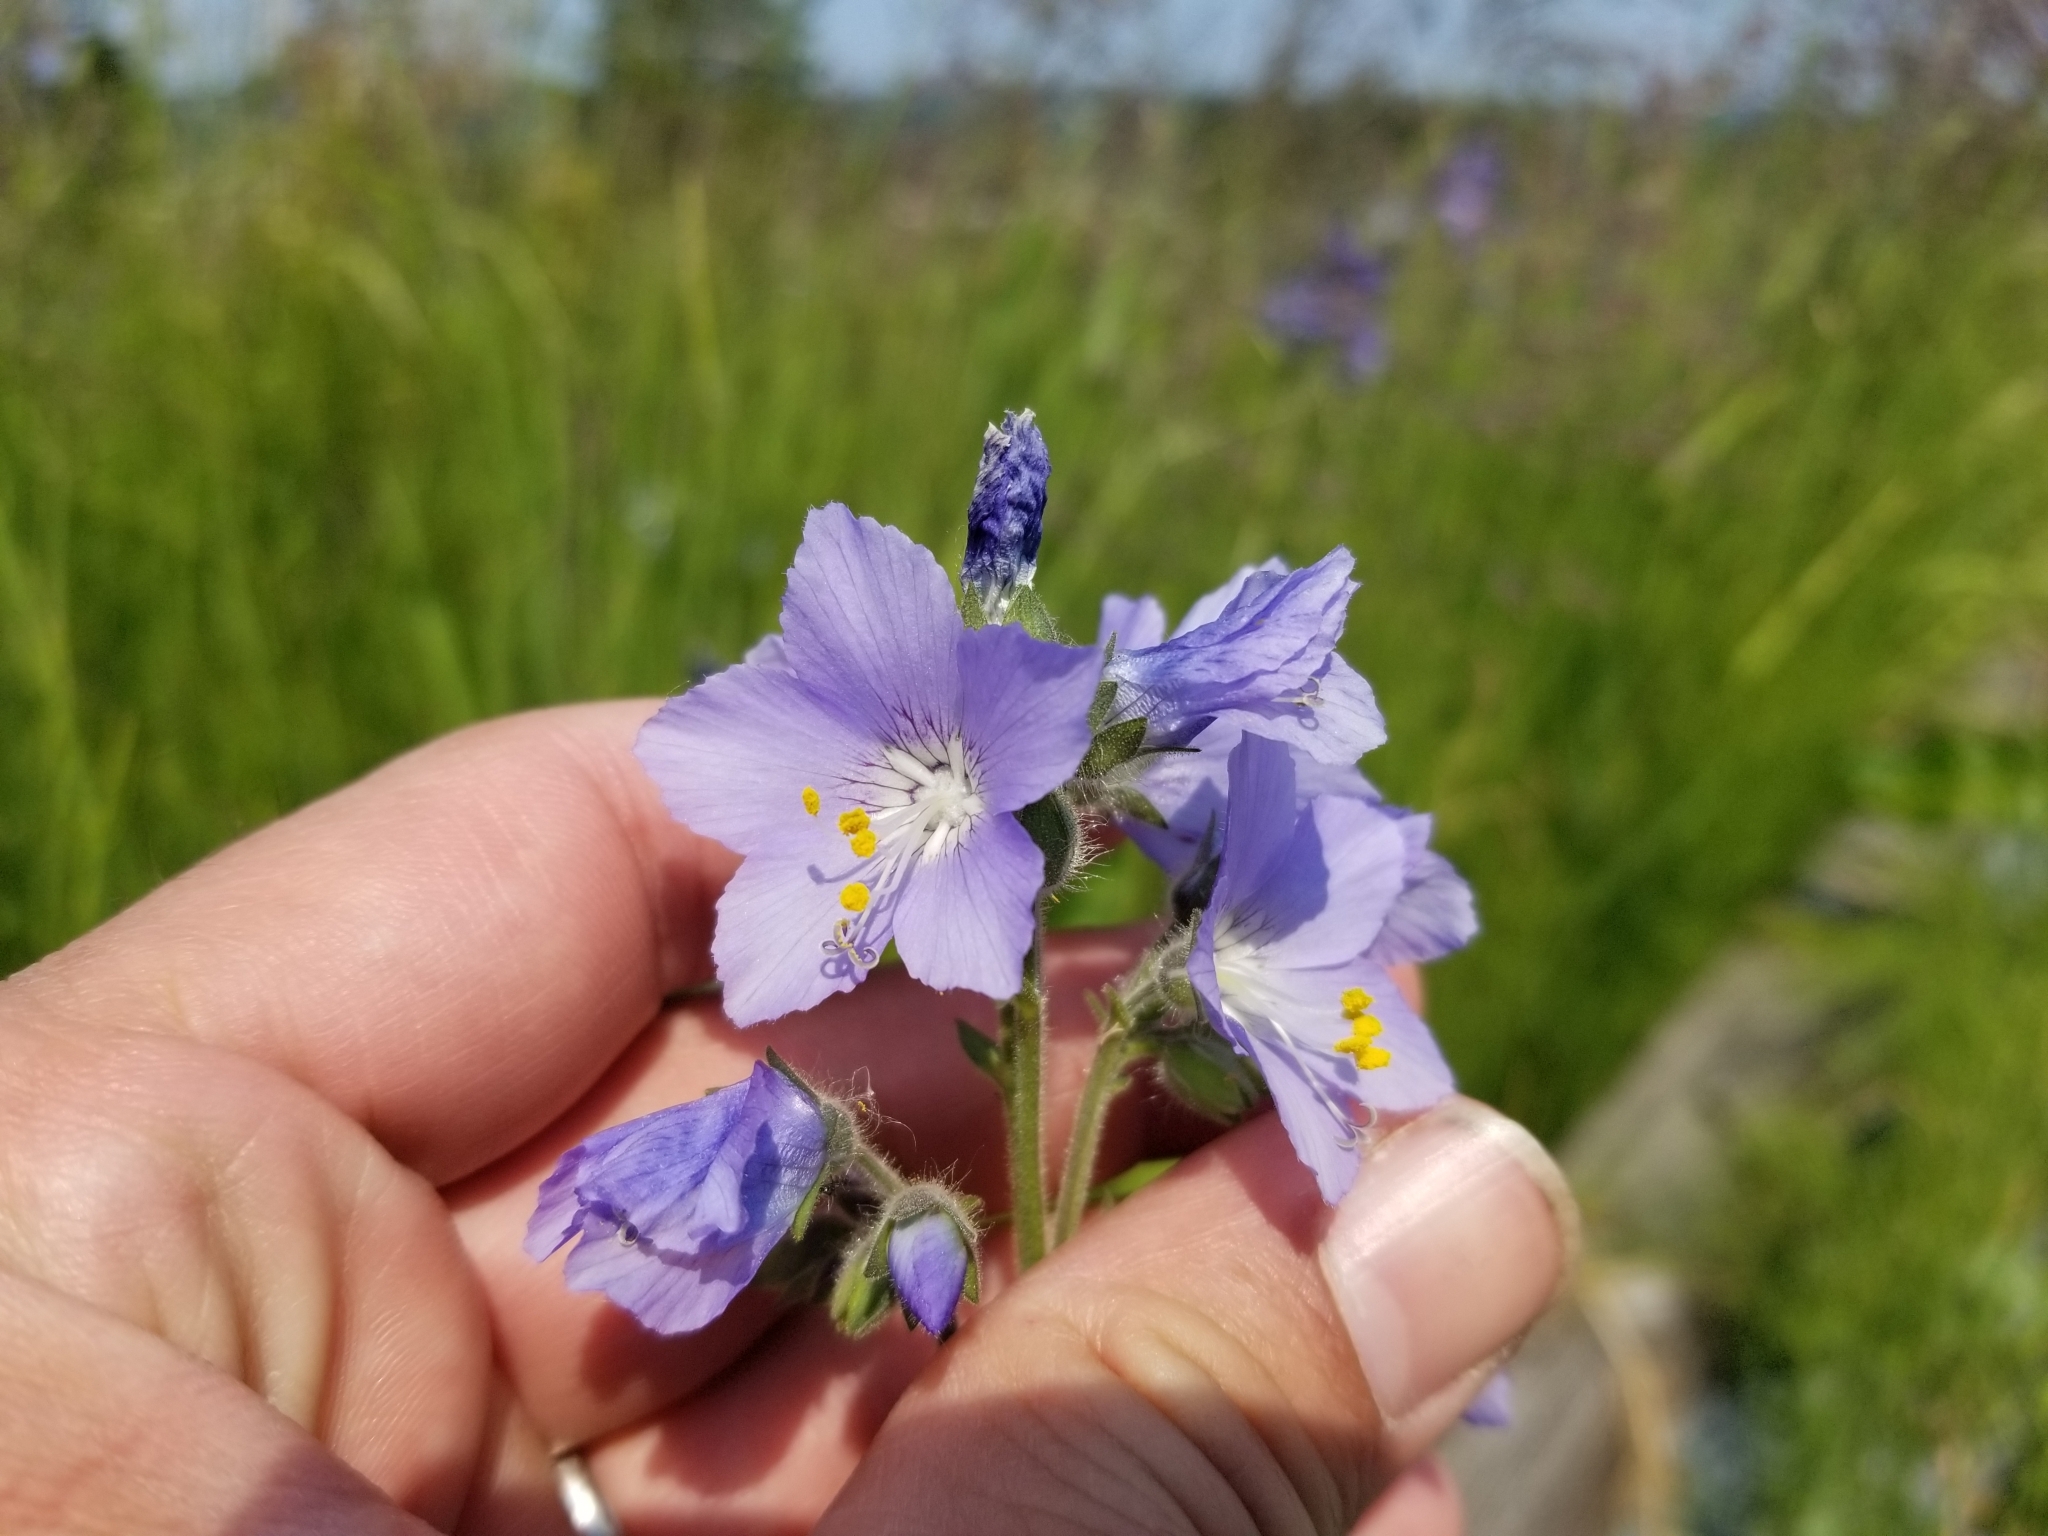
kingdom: Plantae
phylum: Tracheophyta
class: Magnoliopsida
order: Ericales
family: Polemoniaceae
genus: Polemonium
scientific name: Polemonium acutiflorum
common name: Tall jacob's-ladder
